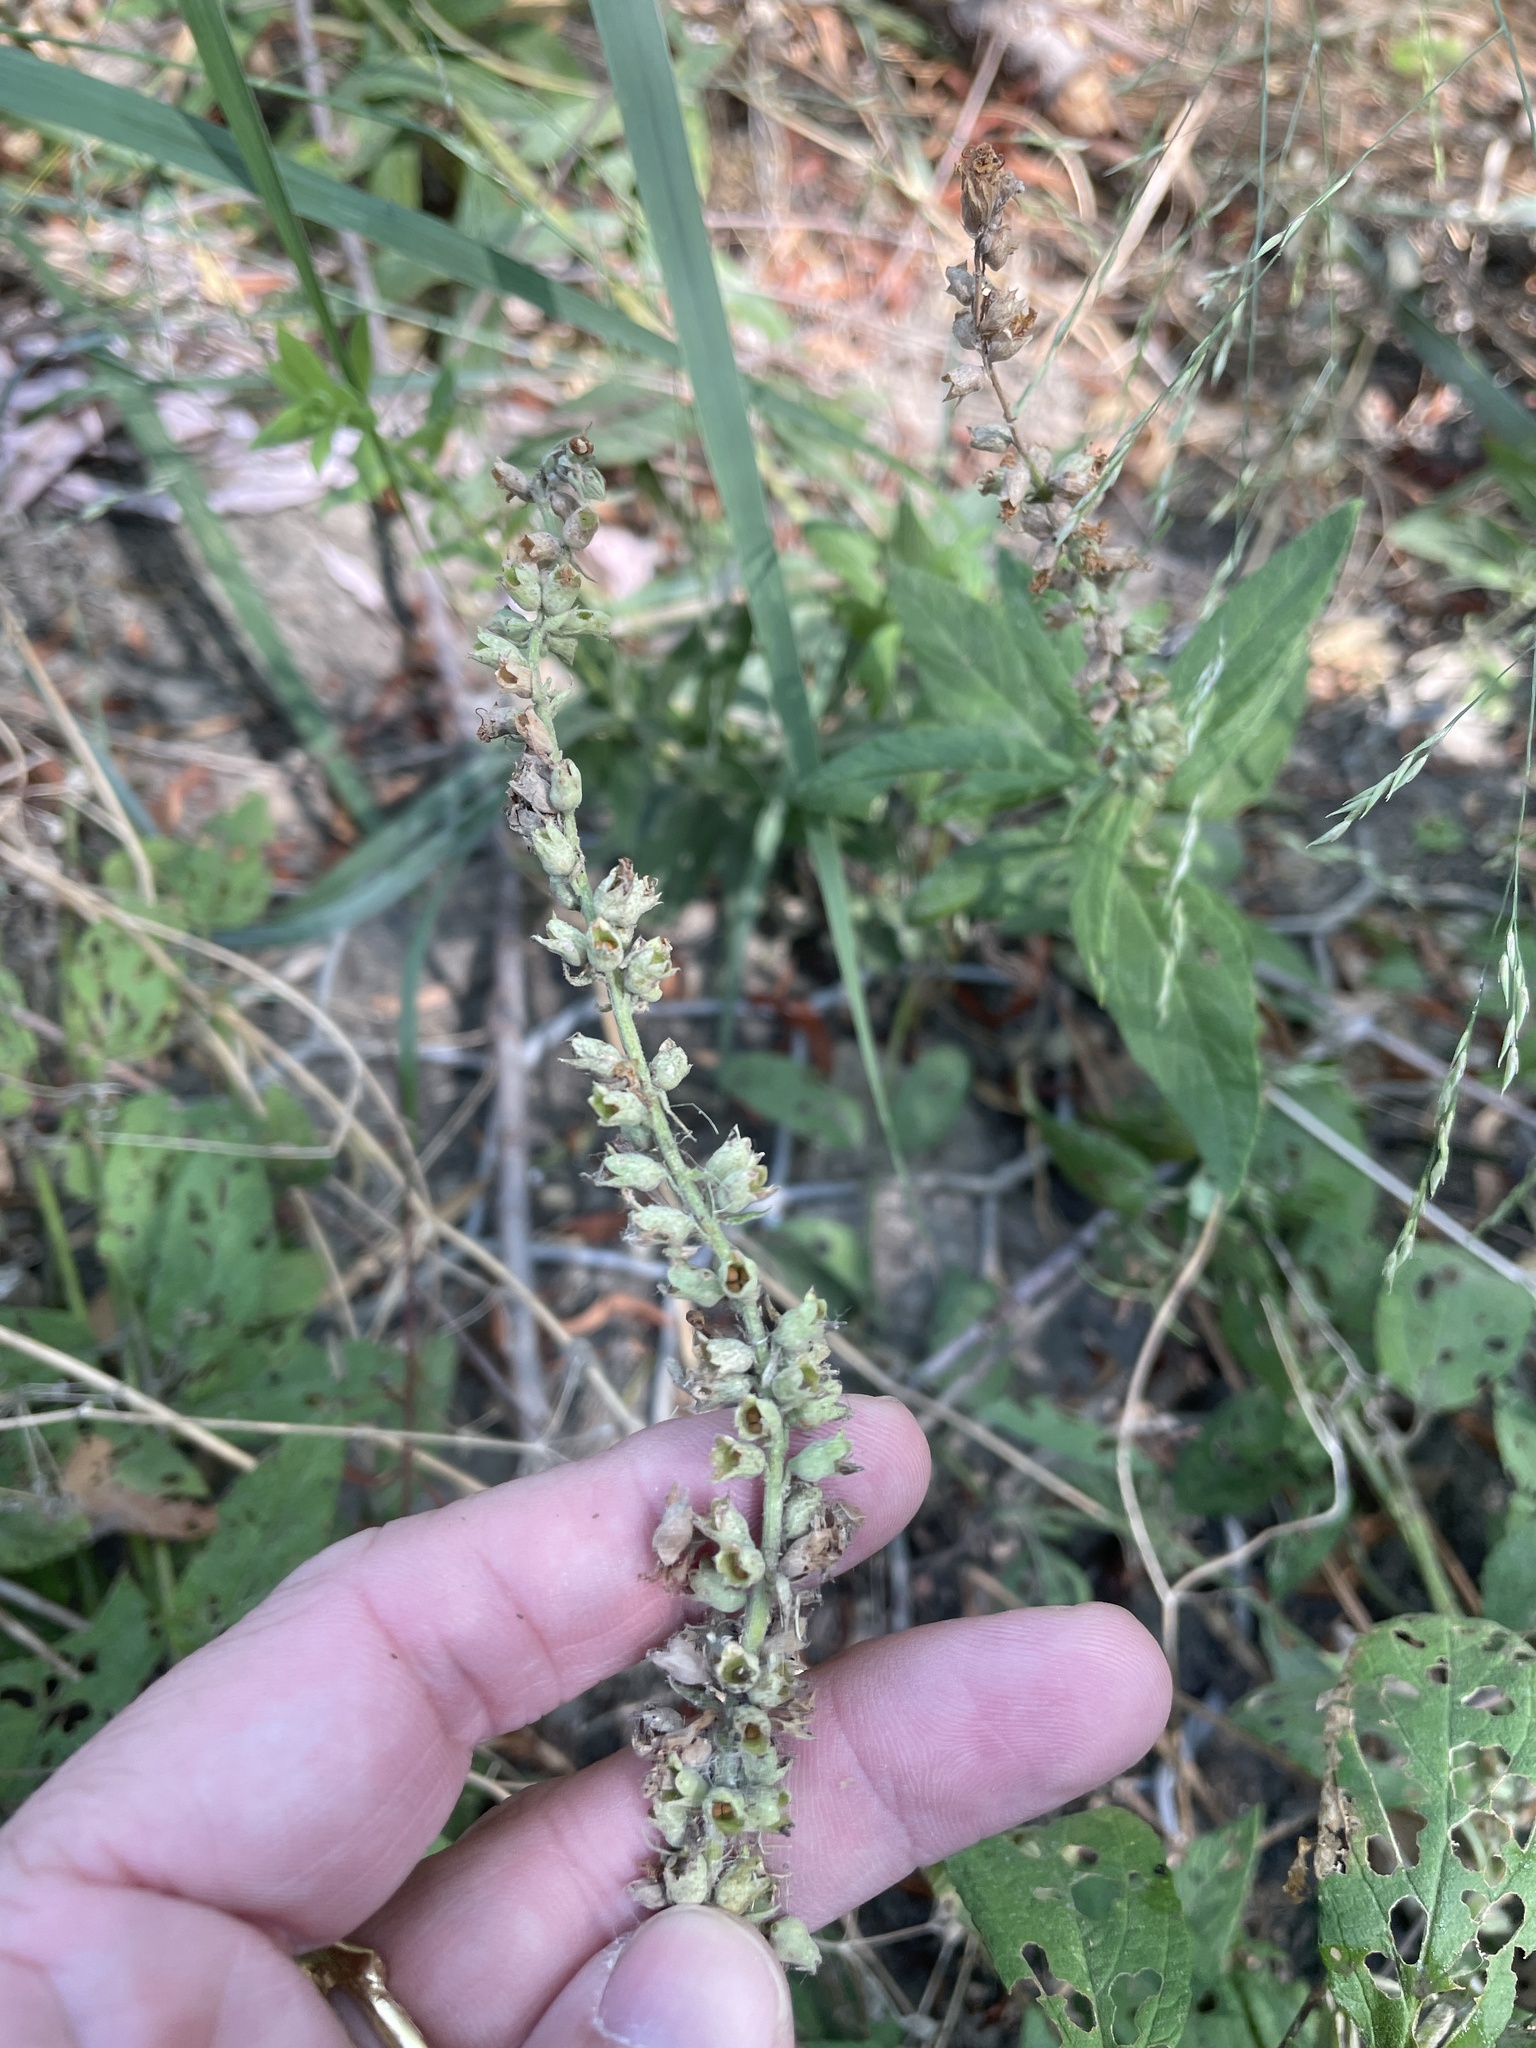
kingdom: Plantae
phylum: Tracheophyta
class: Magnoliopsida
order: Lamiales
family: Lamiaceae
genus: Teucrium
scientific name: Teucrium canadense
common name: American germander
